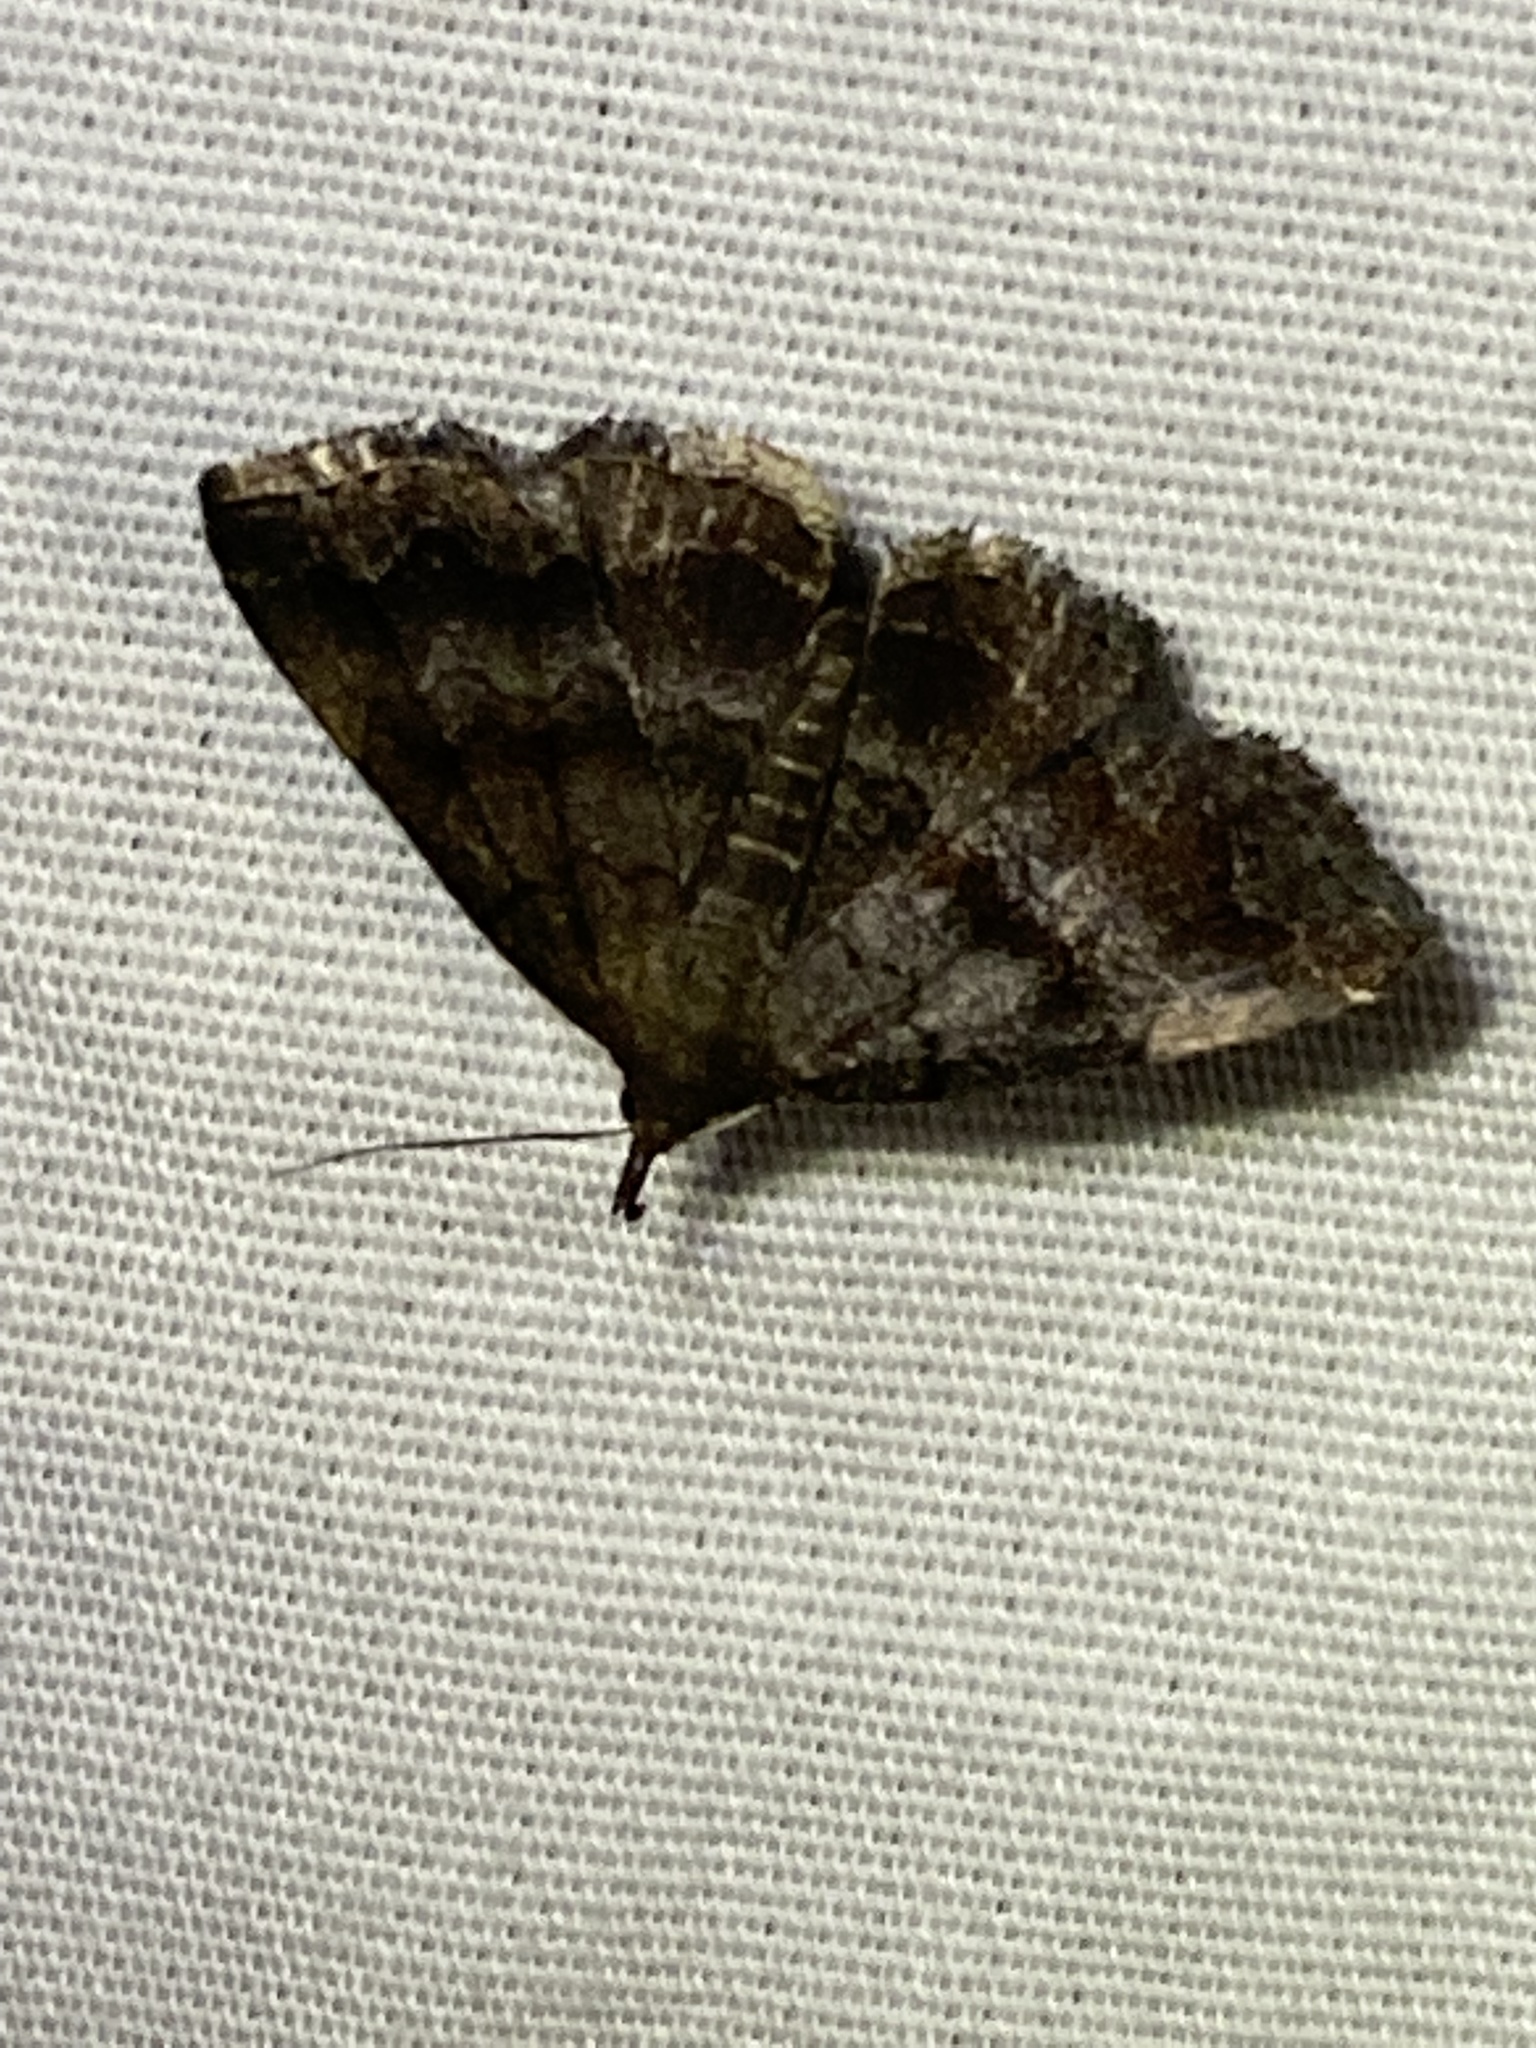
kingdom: Animalia
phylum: Arthropoda
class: Insecta
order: Lepidoptera
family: Erebidae
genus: Phalaenostola
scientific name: Phalaenostola larentioides
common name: Black-banded owlet
